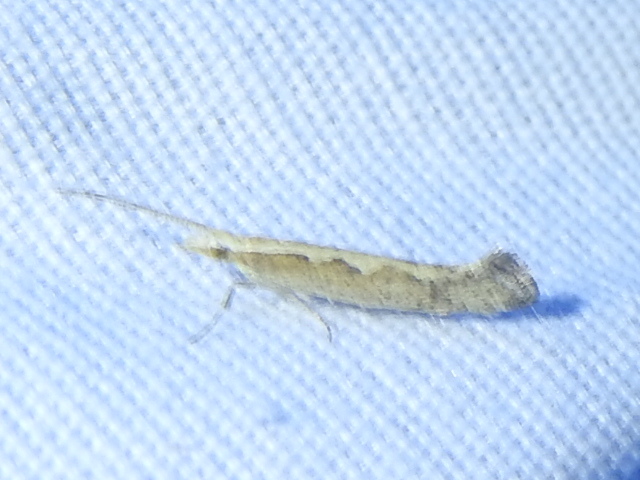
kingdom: Animalia
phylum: Arthropoda
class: Insecta
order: Lepidoptera
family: Plutellidae
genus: Plutella
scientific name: Plutella xylostella
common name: Diamond-back moth
